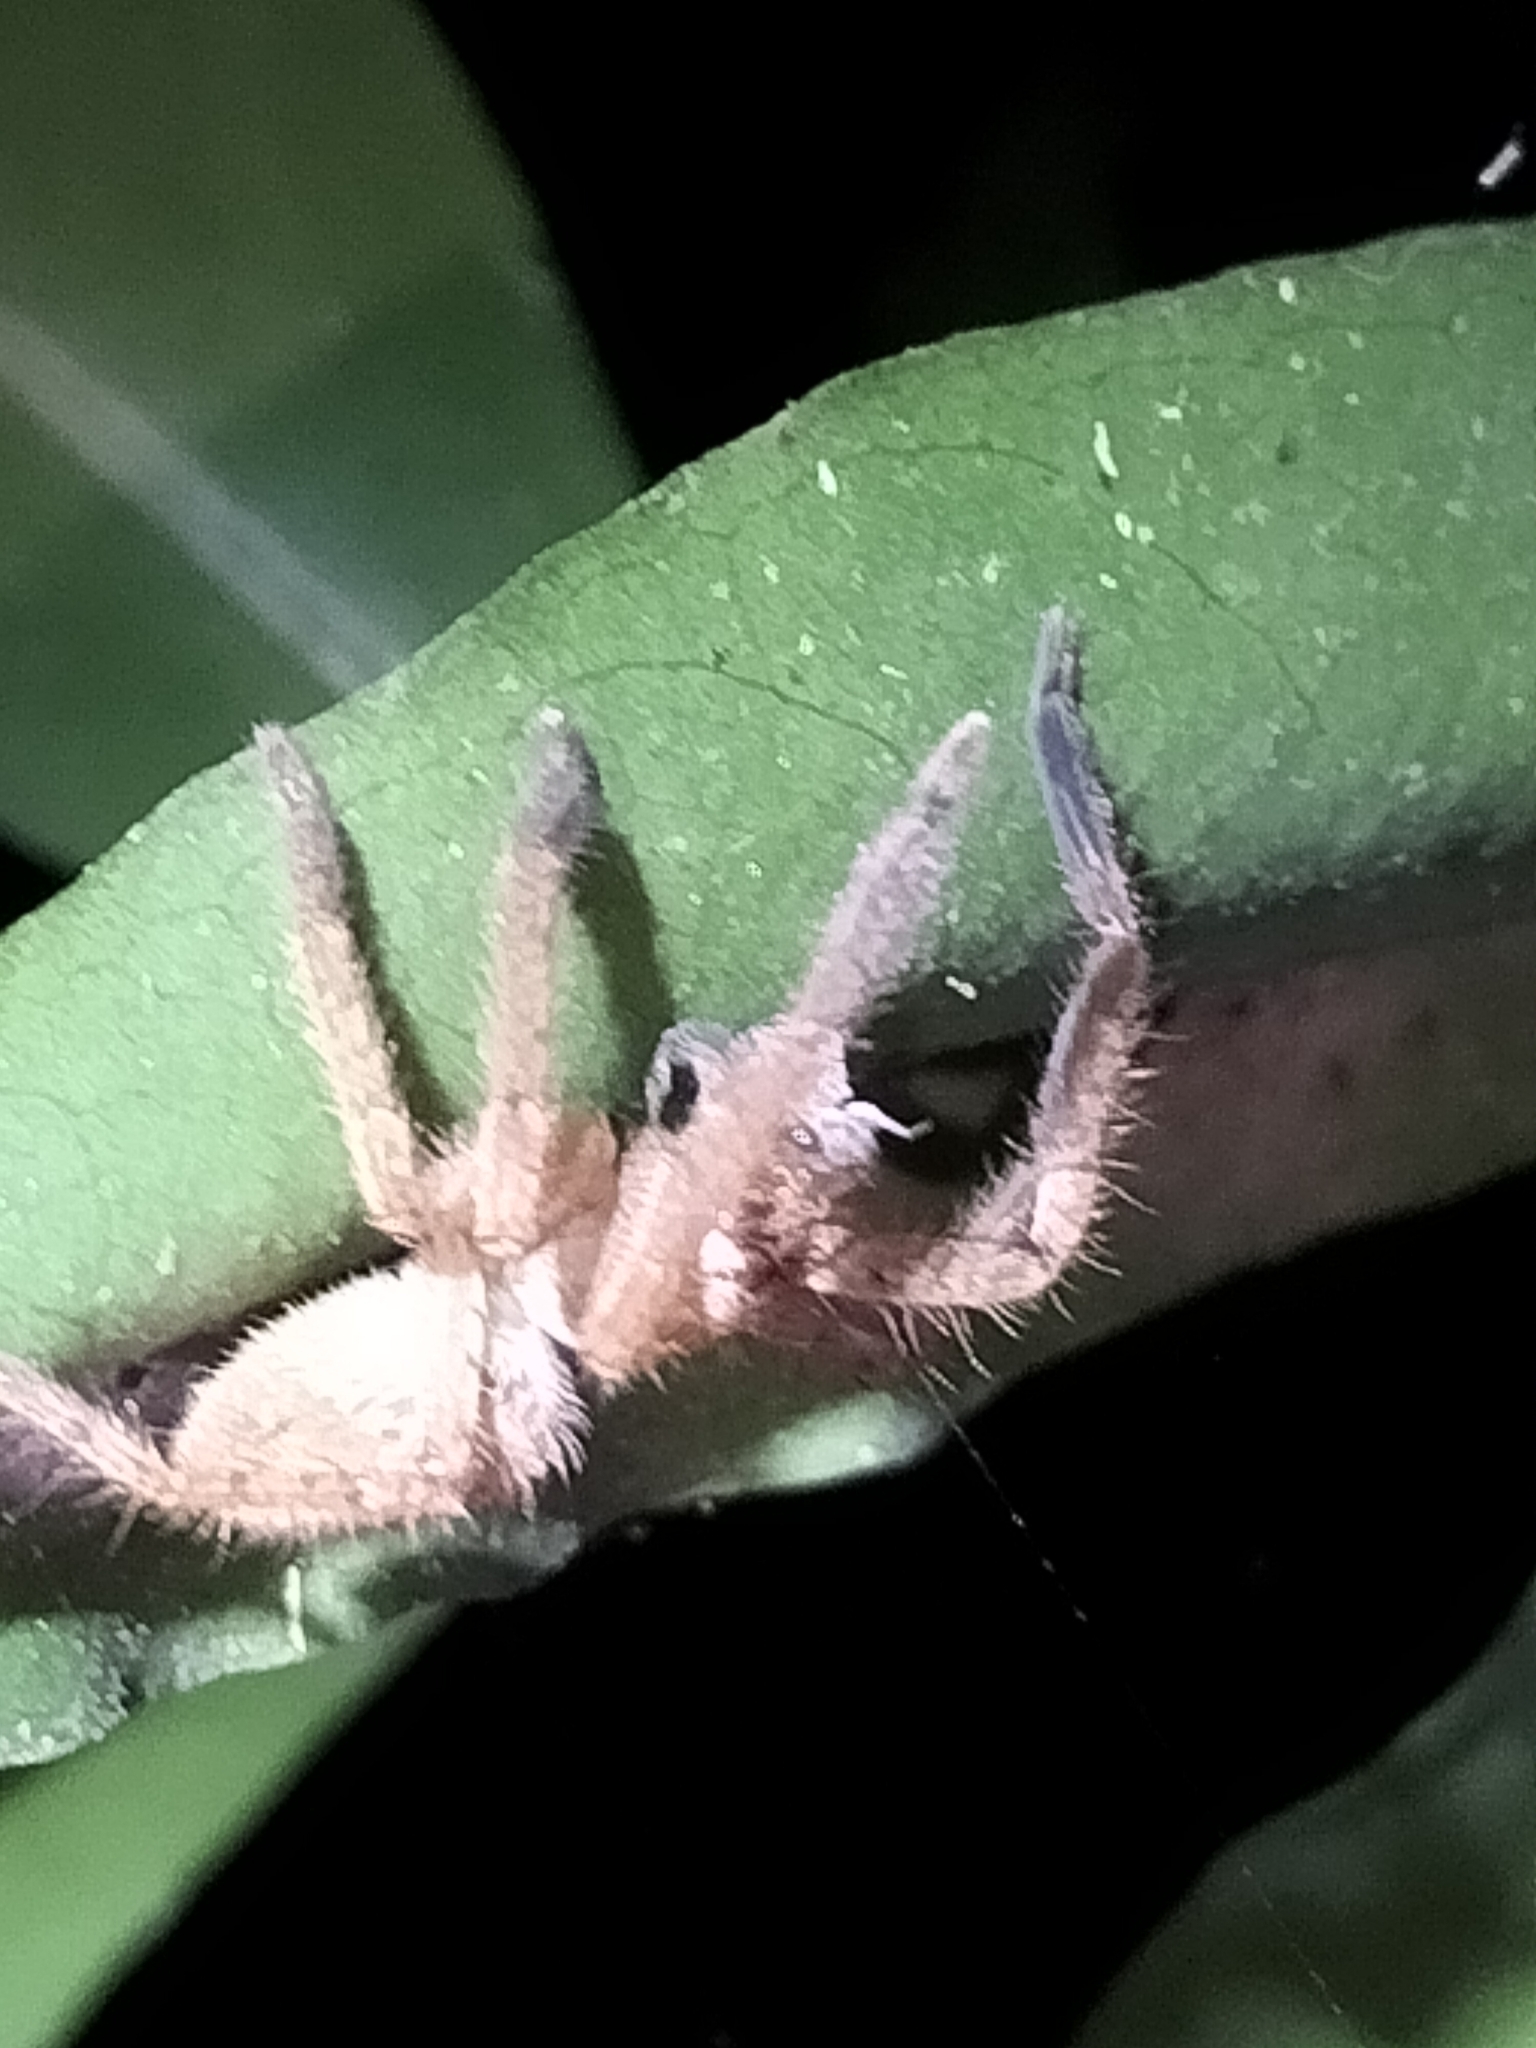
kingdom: Animalia
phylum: Arthropoda
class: Arachnida
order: Araneae
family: Sparassidae
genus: Beregama
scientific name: Beregama cordata
